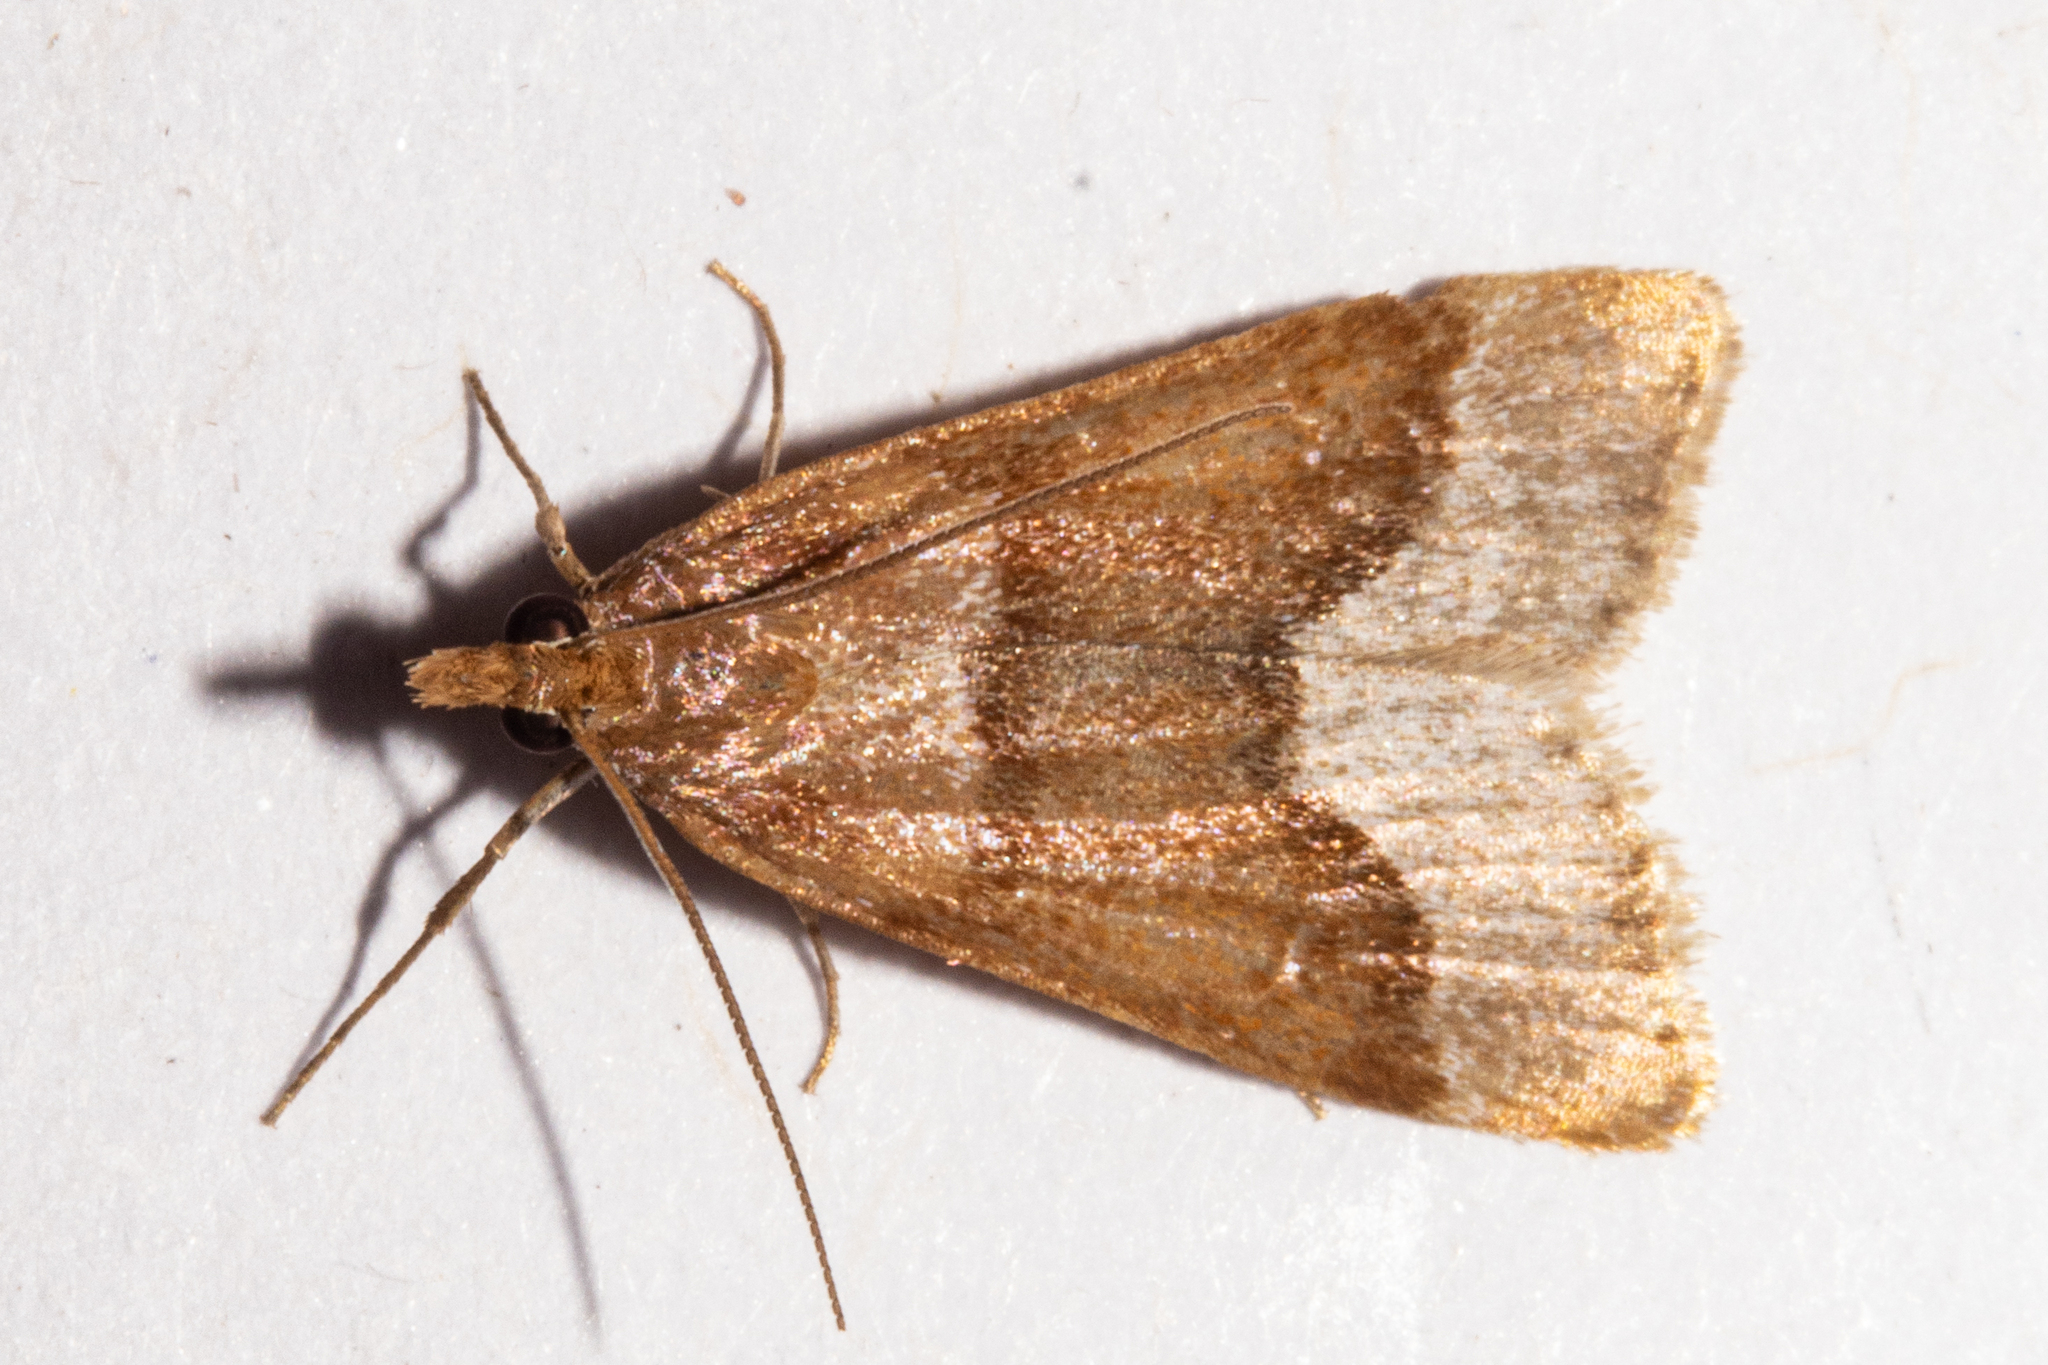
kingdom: Animalia
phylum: Arthropoda
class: Insecta
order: Lepidoptera
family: Crambidae
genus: Eudonia
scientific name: Eudonia feredayi
